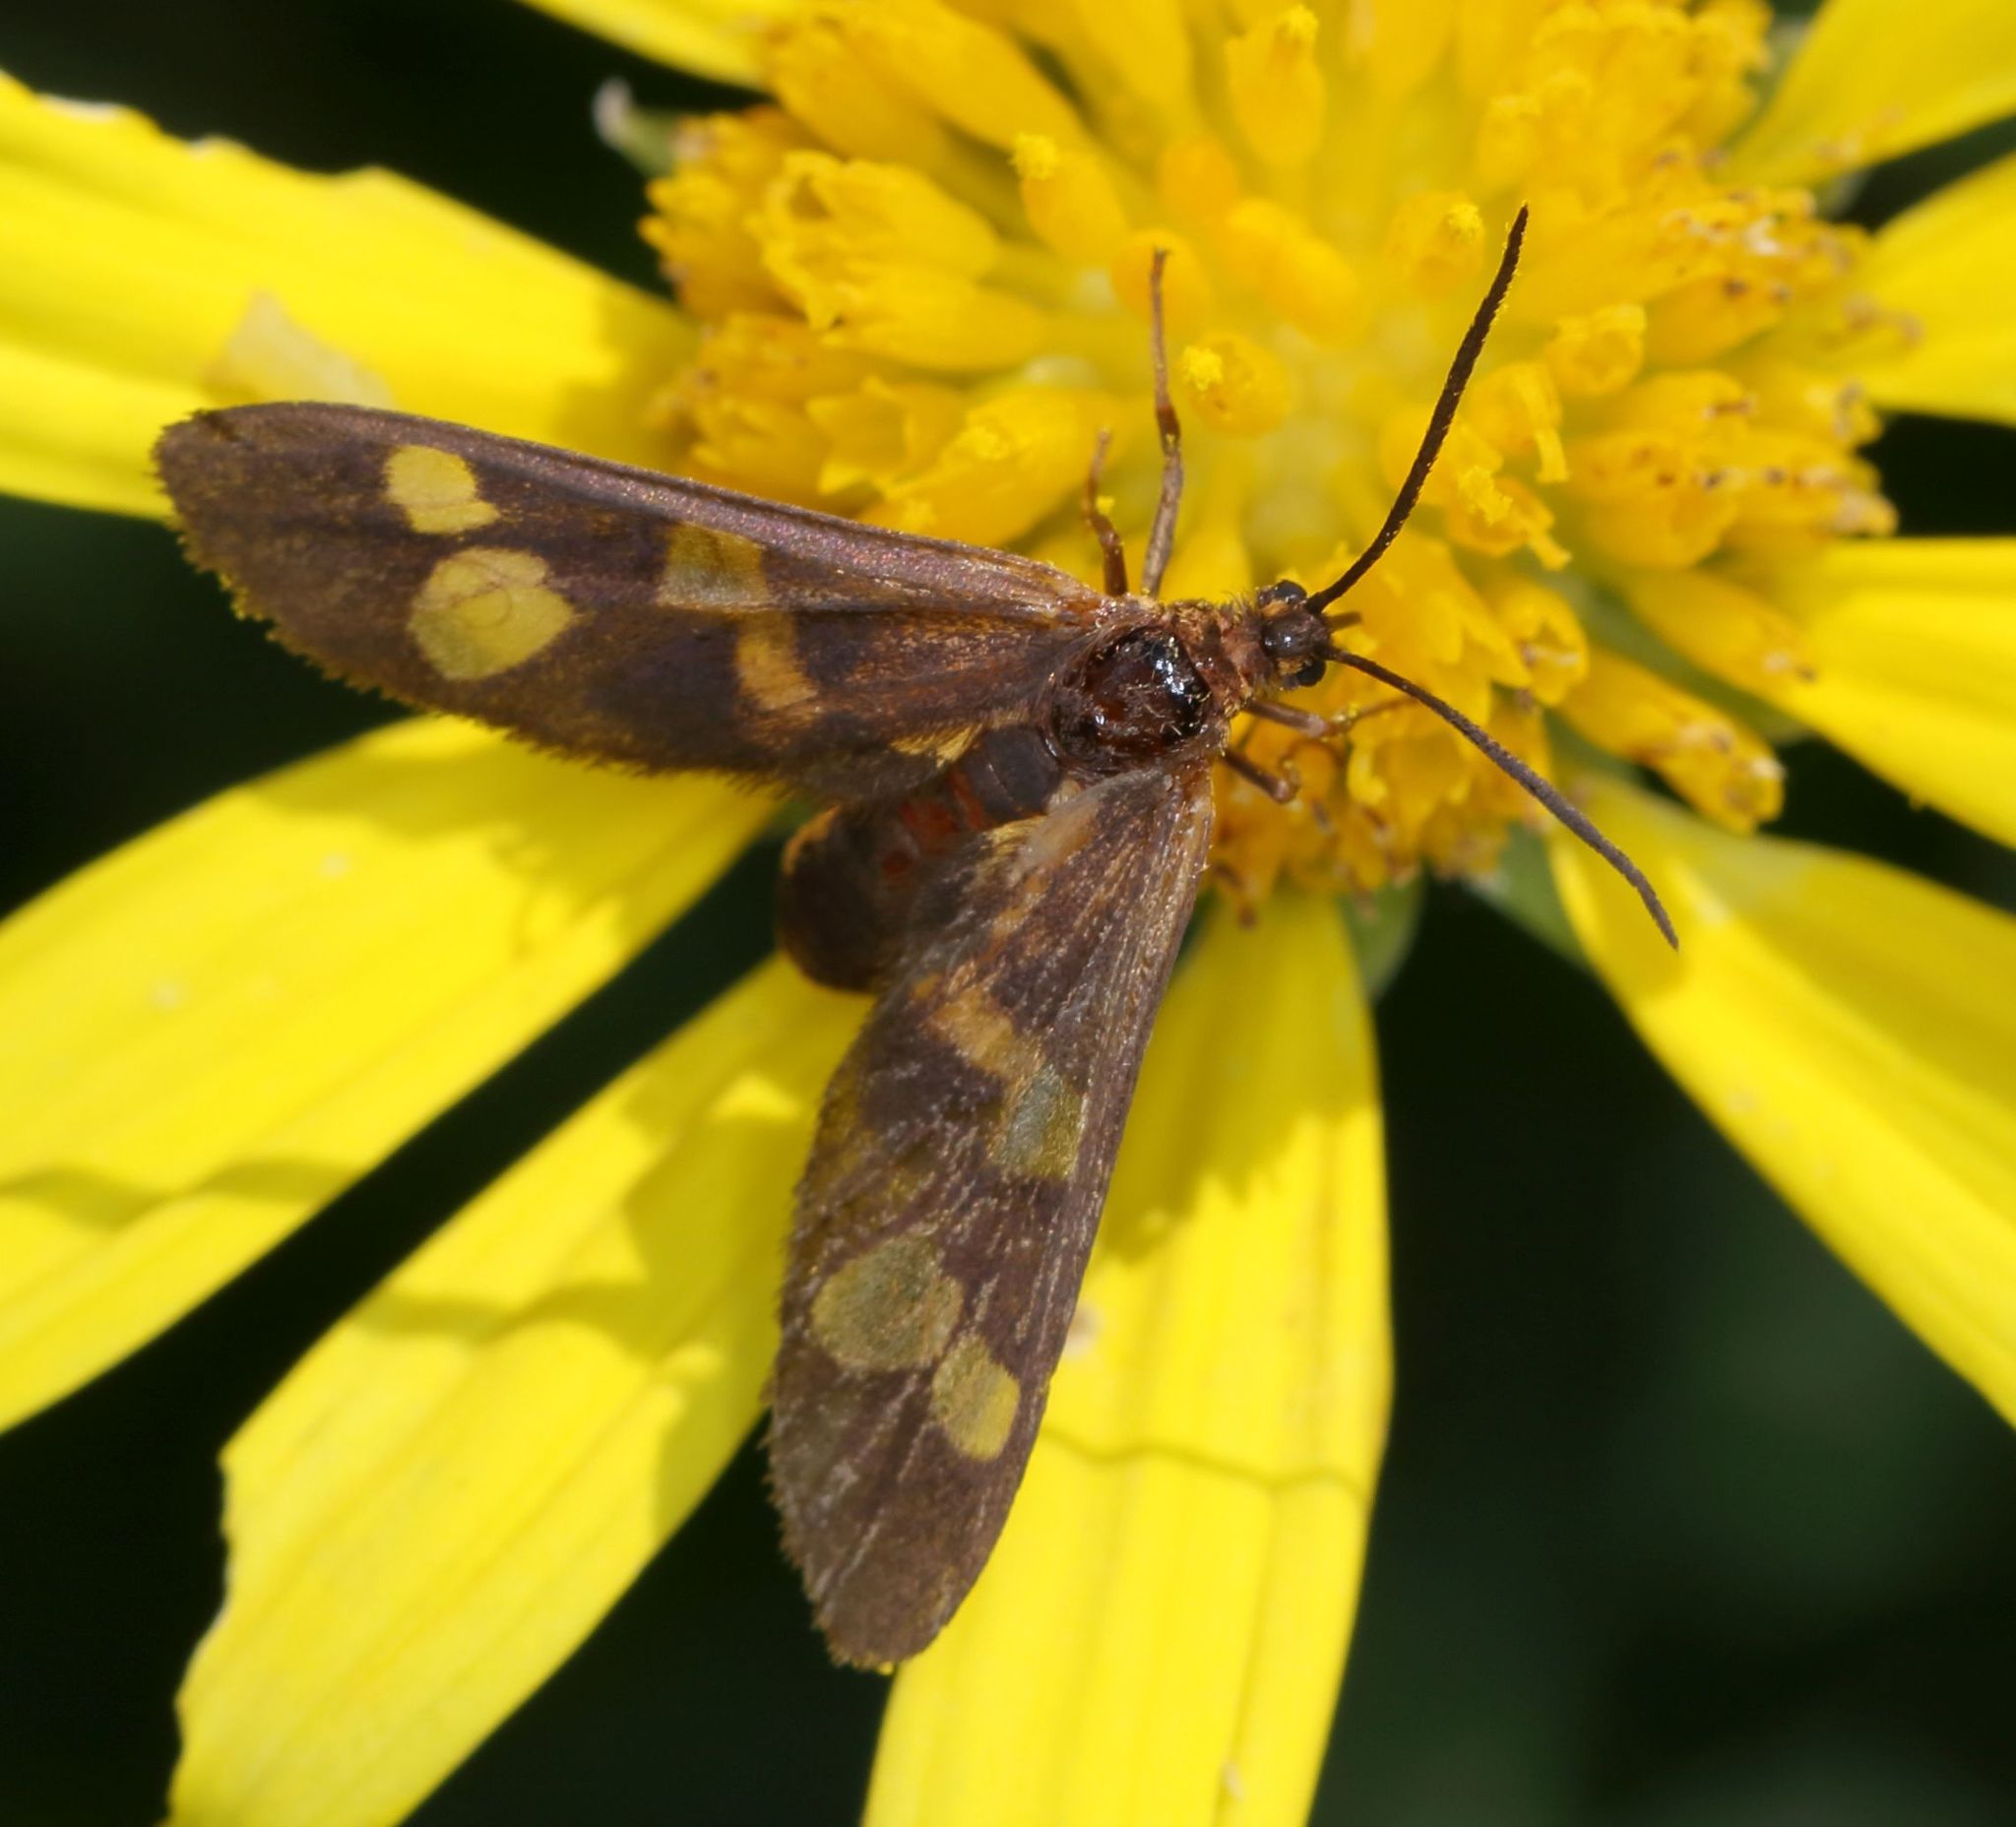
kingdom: Animalia
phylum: Arthropoda
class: Insecta
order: Lepidoptera
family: Erebidae
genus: Pseudonaclia
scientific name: Pseudonaclia puella
